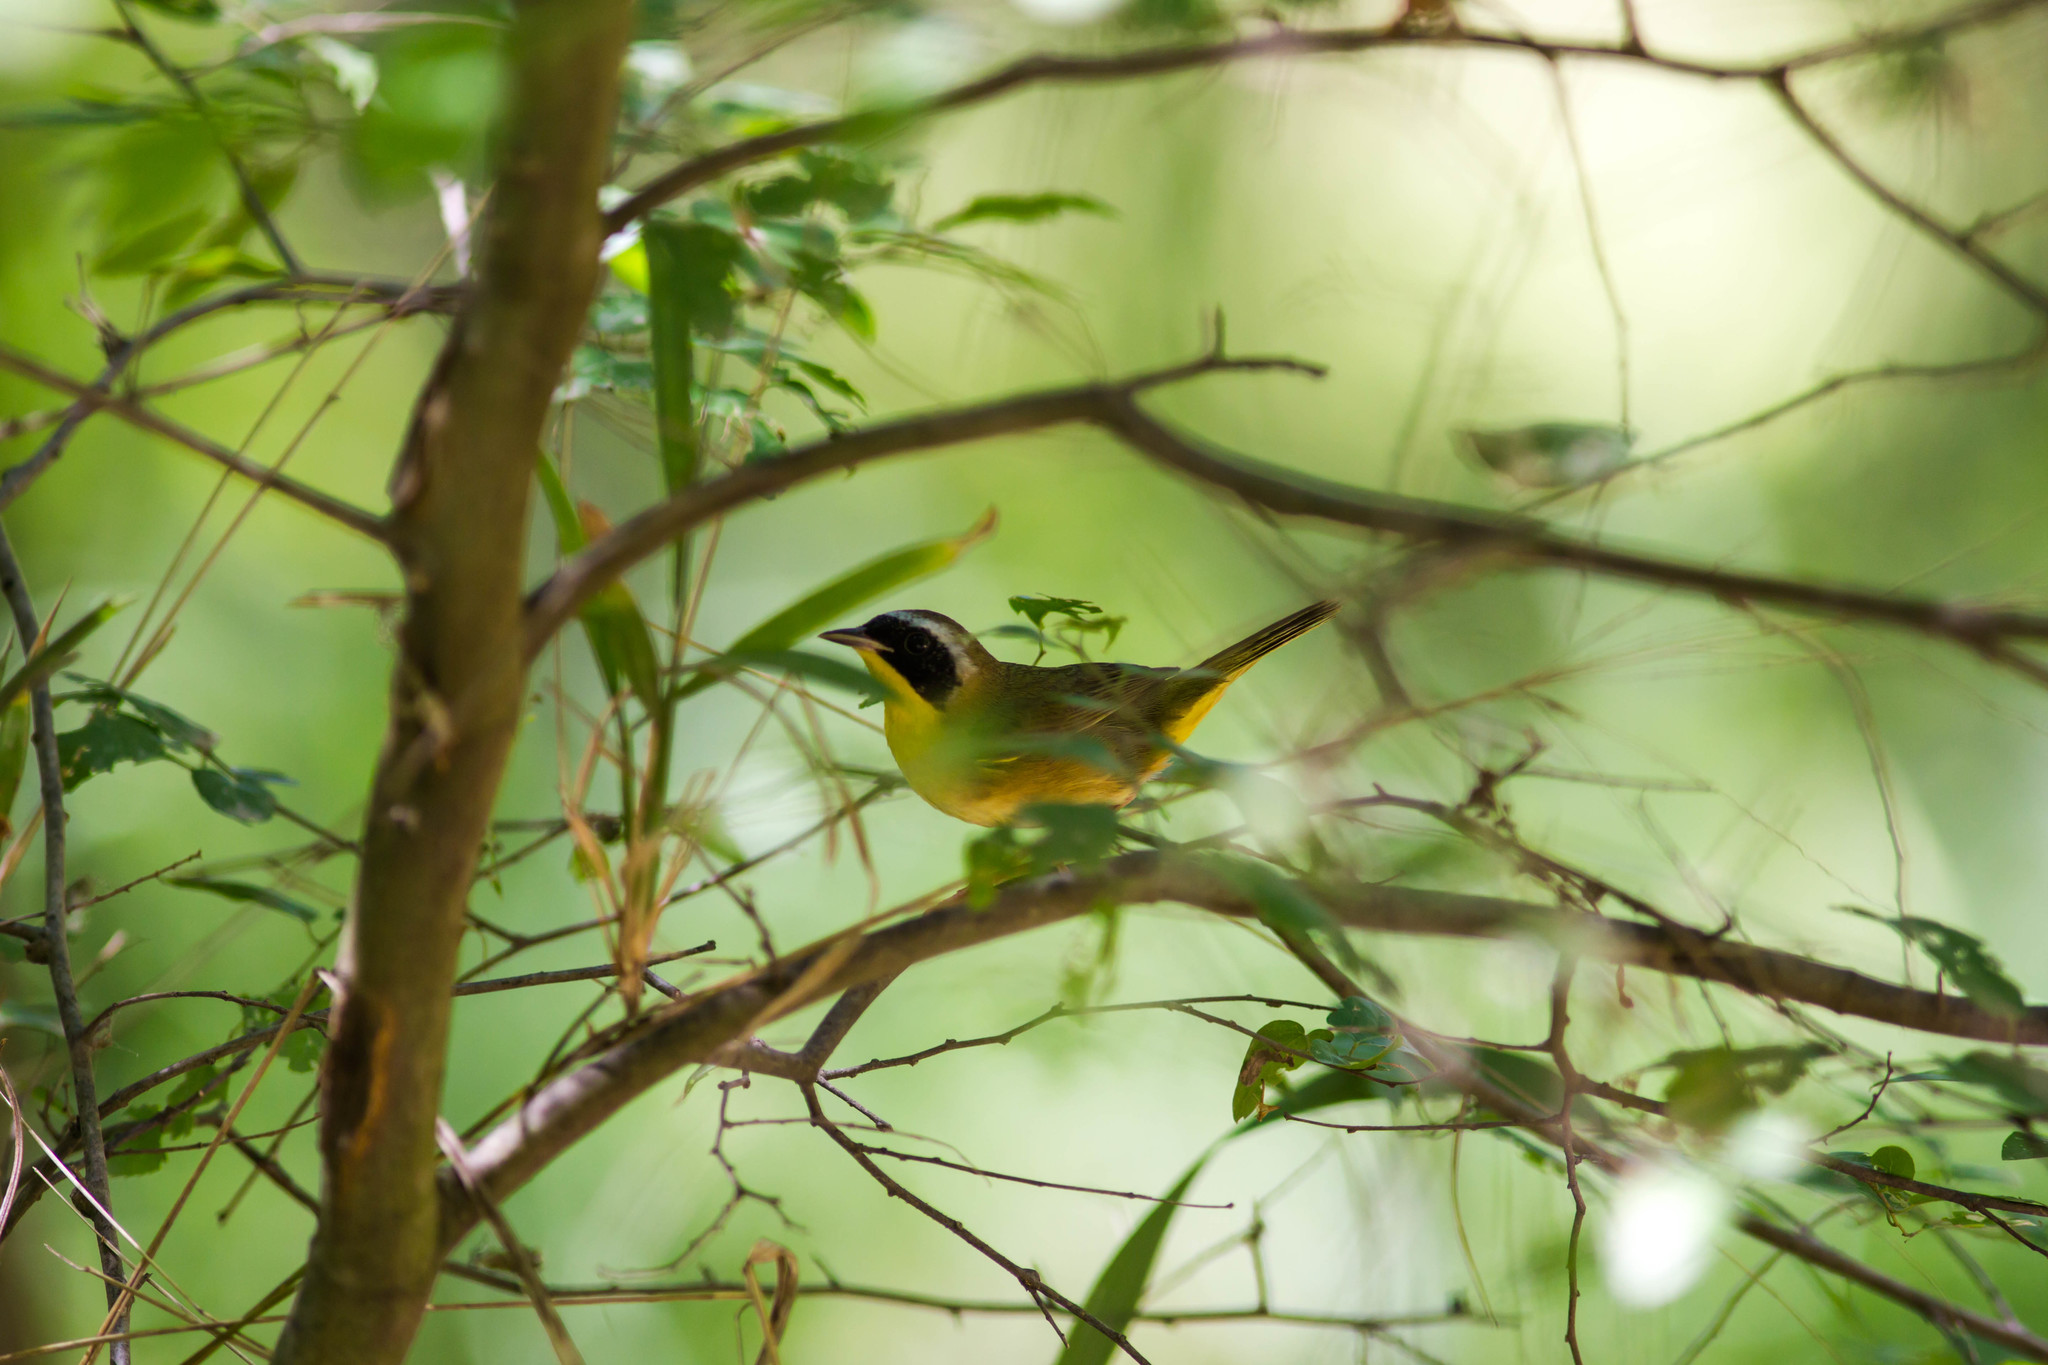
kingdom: Animalia
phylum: Chordata
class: Aves
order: Passeriformes
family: Parulidae
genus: Geothlypis
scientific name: Geothlypis trichas
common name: Common yellowthroat
